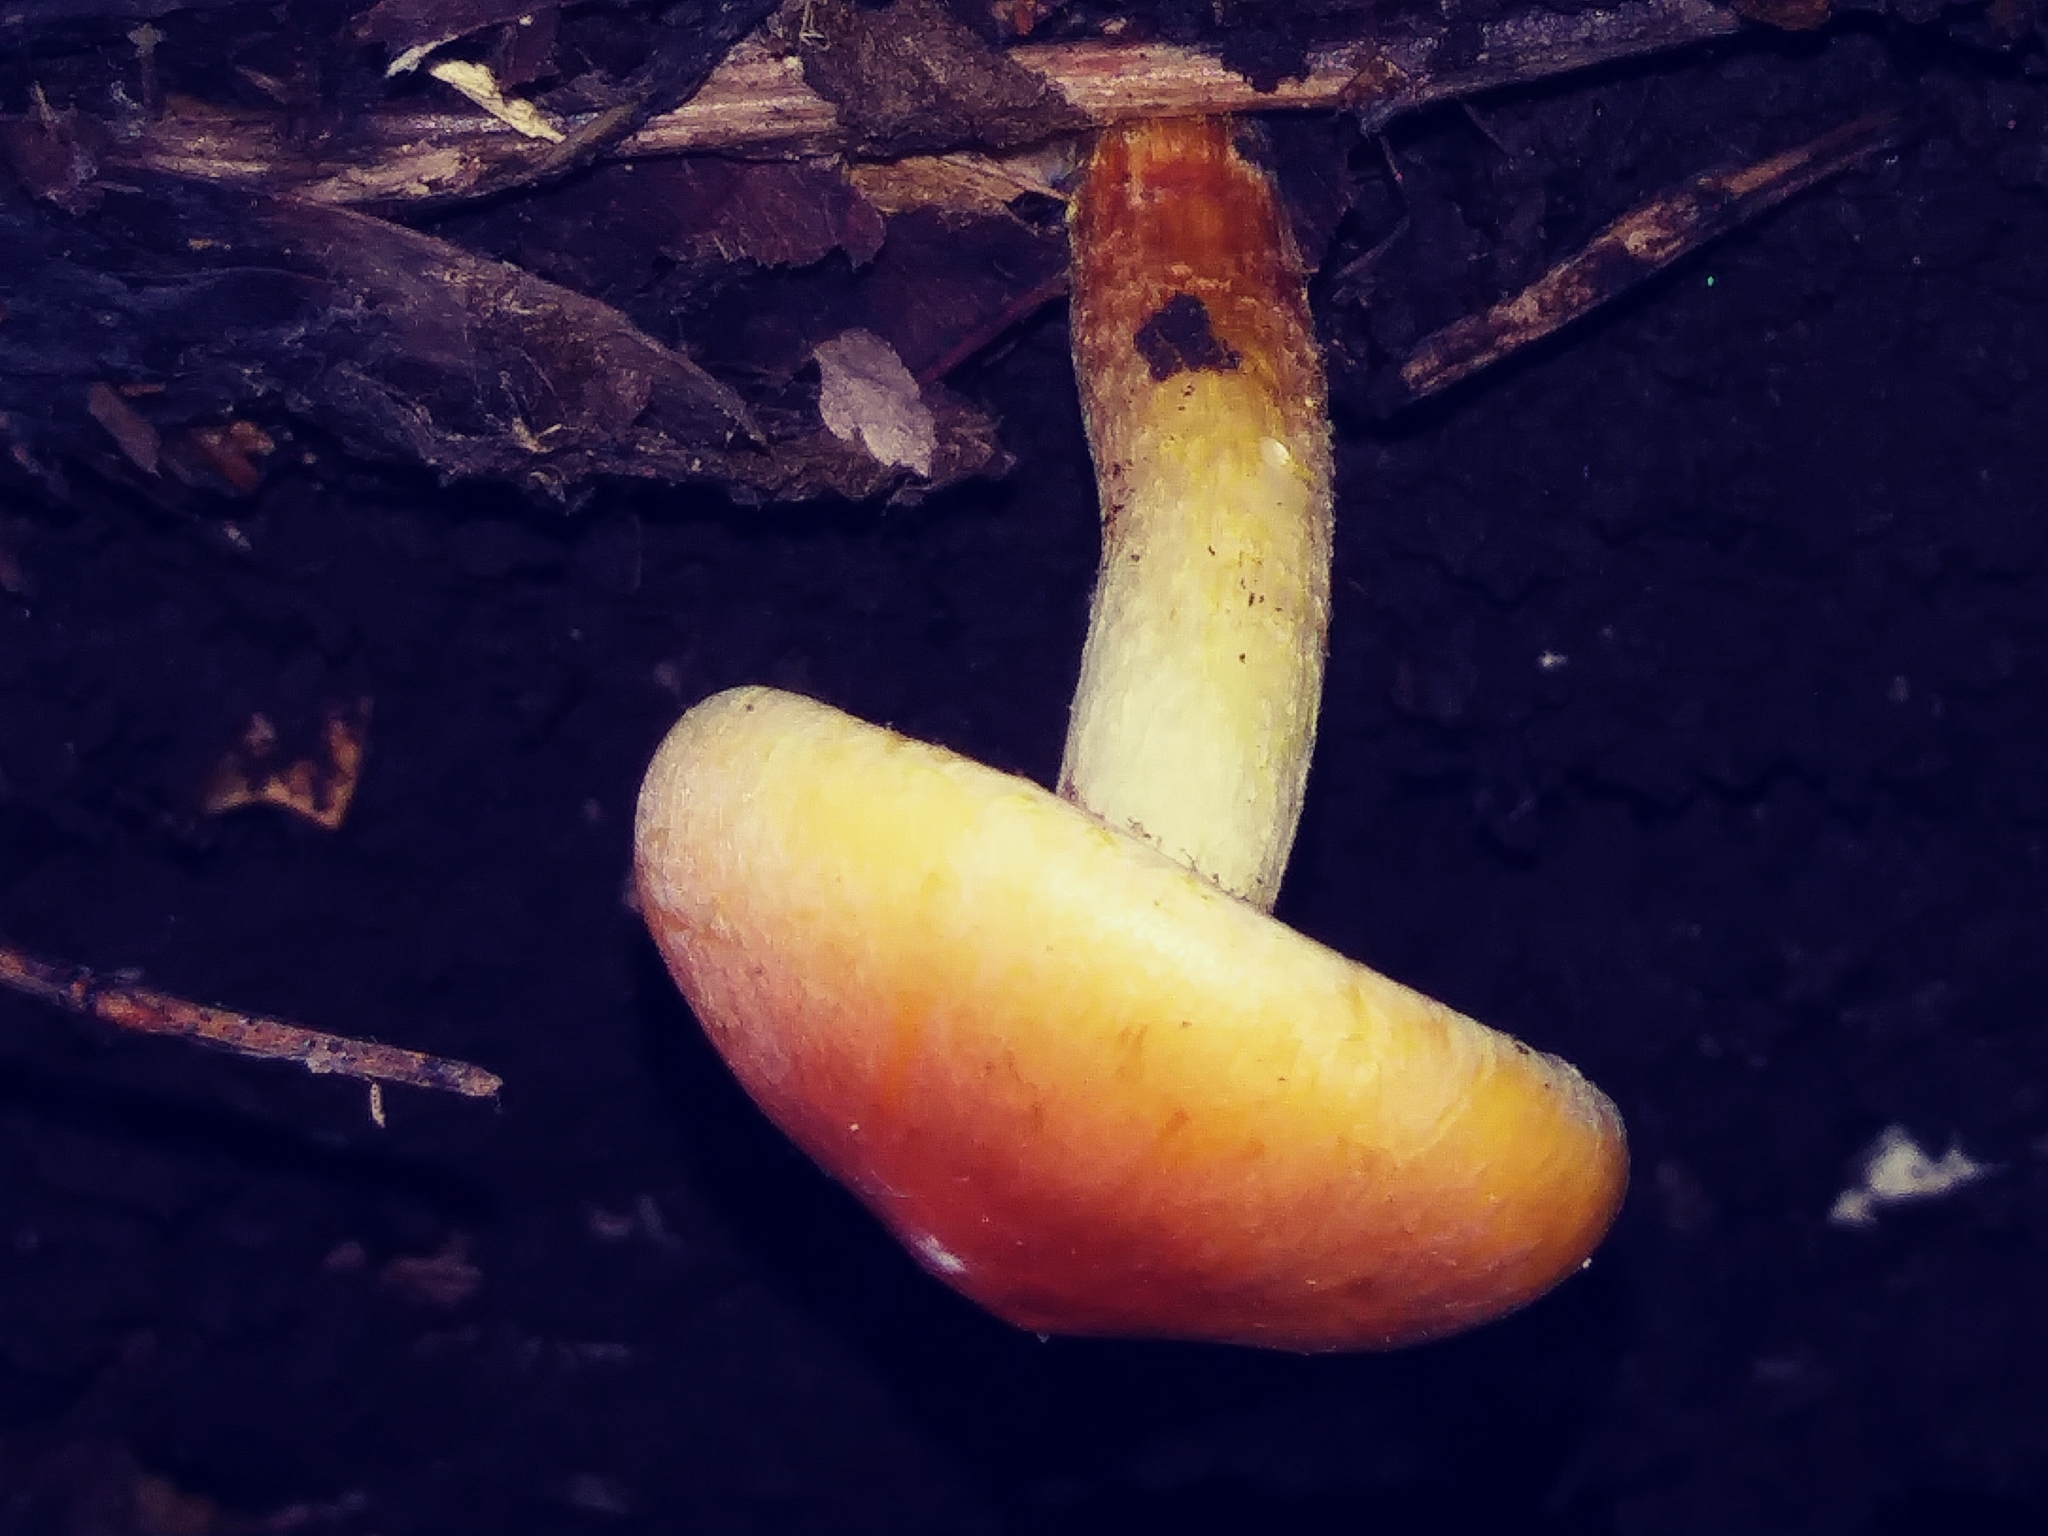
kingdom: Fungi
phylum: Basidiomycota
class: Agaricomycetes
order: Agaricales
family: Strophariaceae
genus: Hypholoma
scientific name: Hypholoma lateritium
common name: Brick caps
